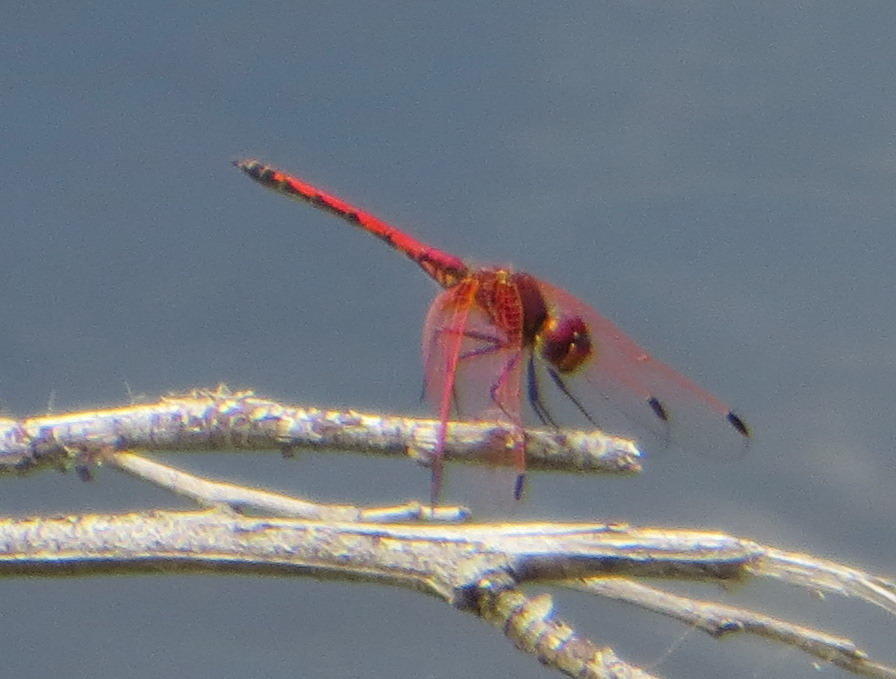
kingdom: Animalia
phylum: Arthropoda
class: Insecta
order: Odonata
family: Libellulidae
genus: Trithemis
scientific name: Trithemis arteriosa
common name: Red-veined dropwing
